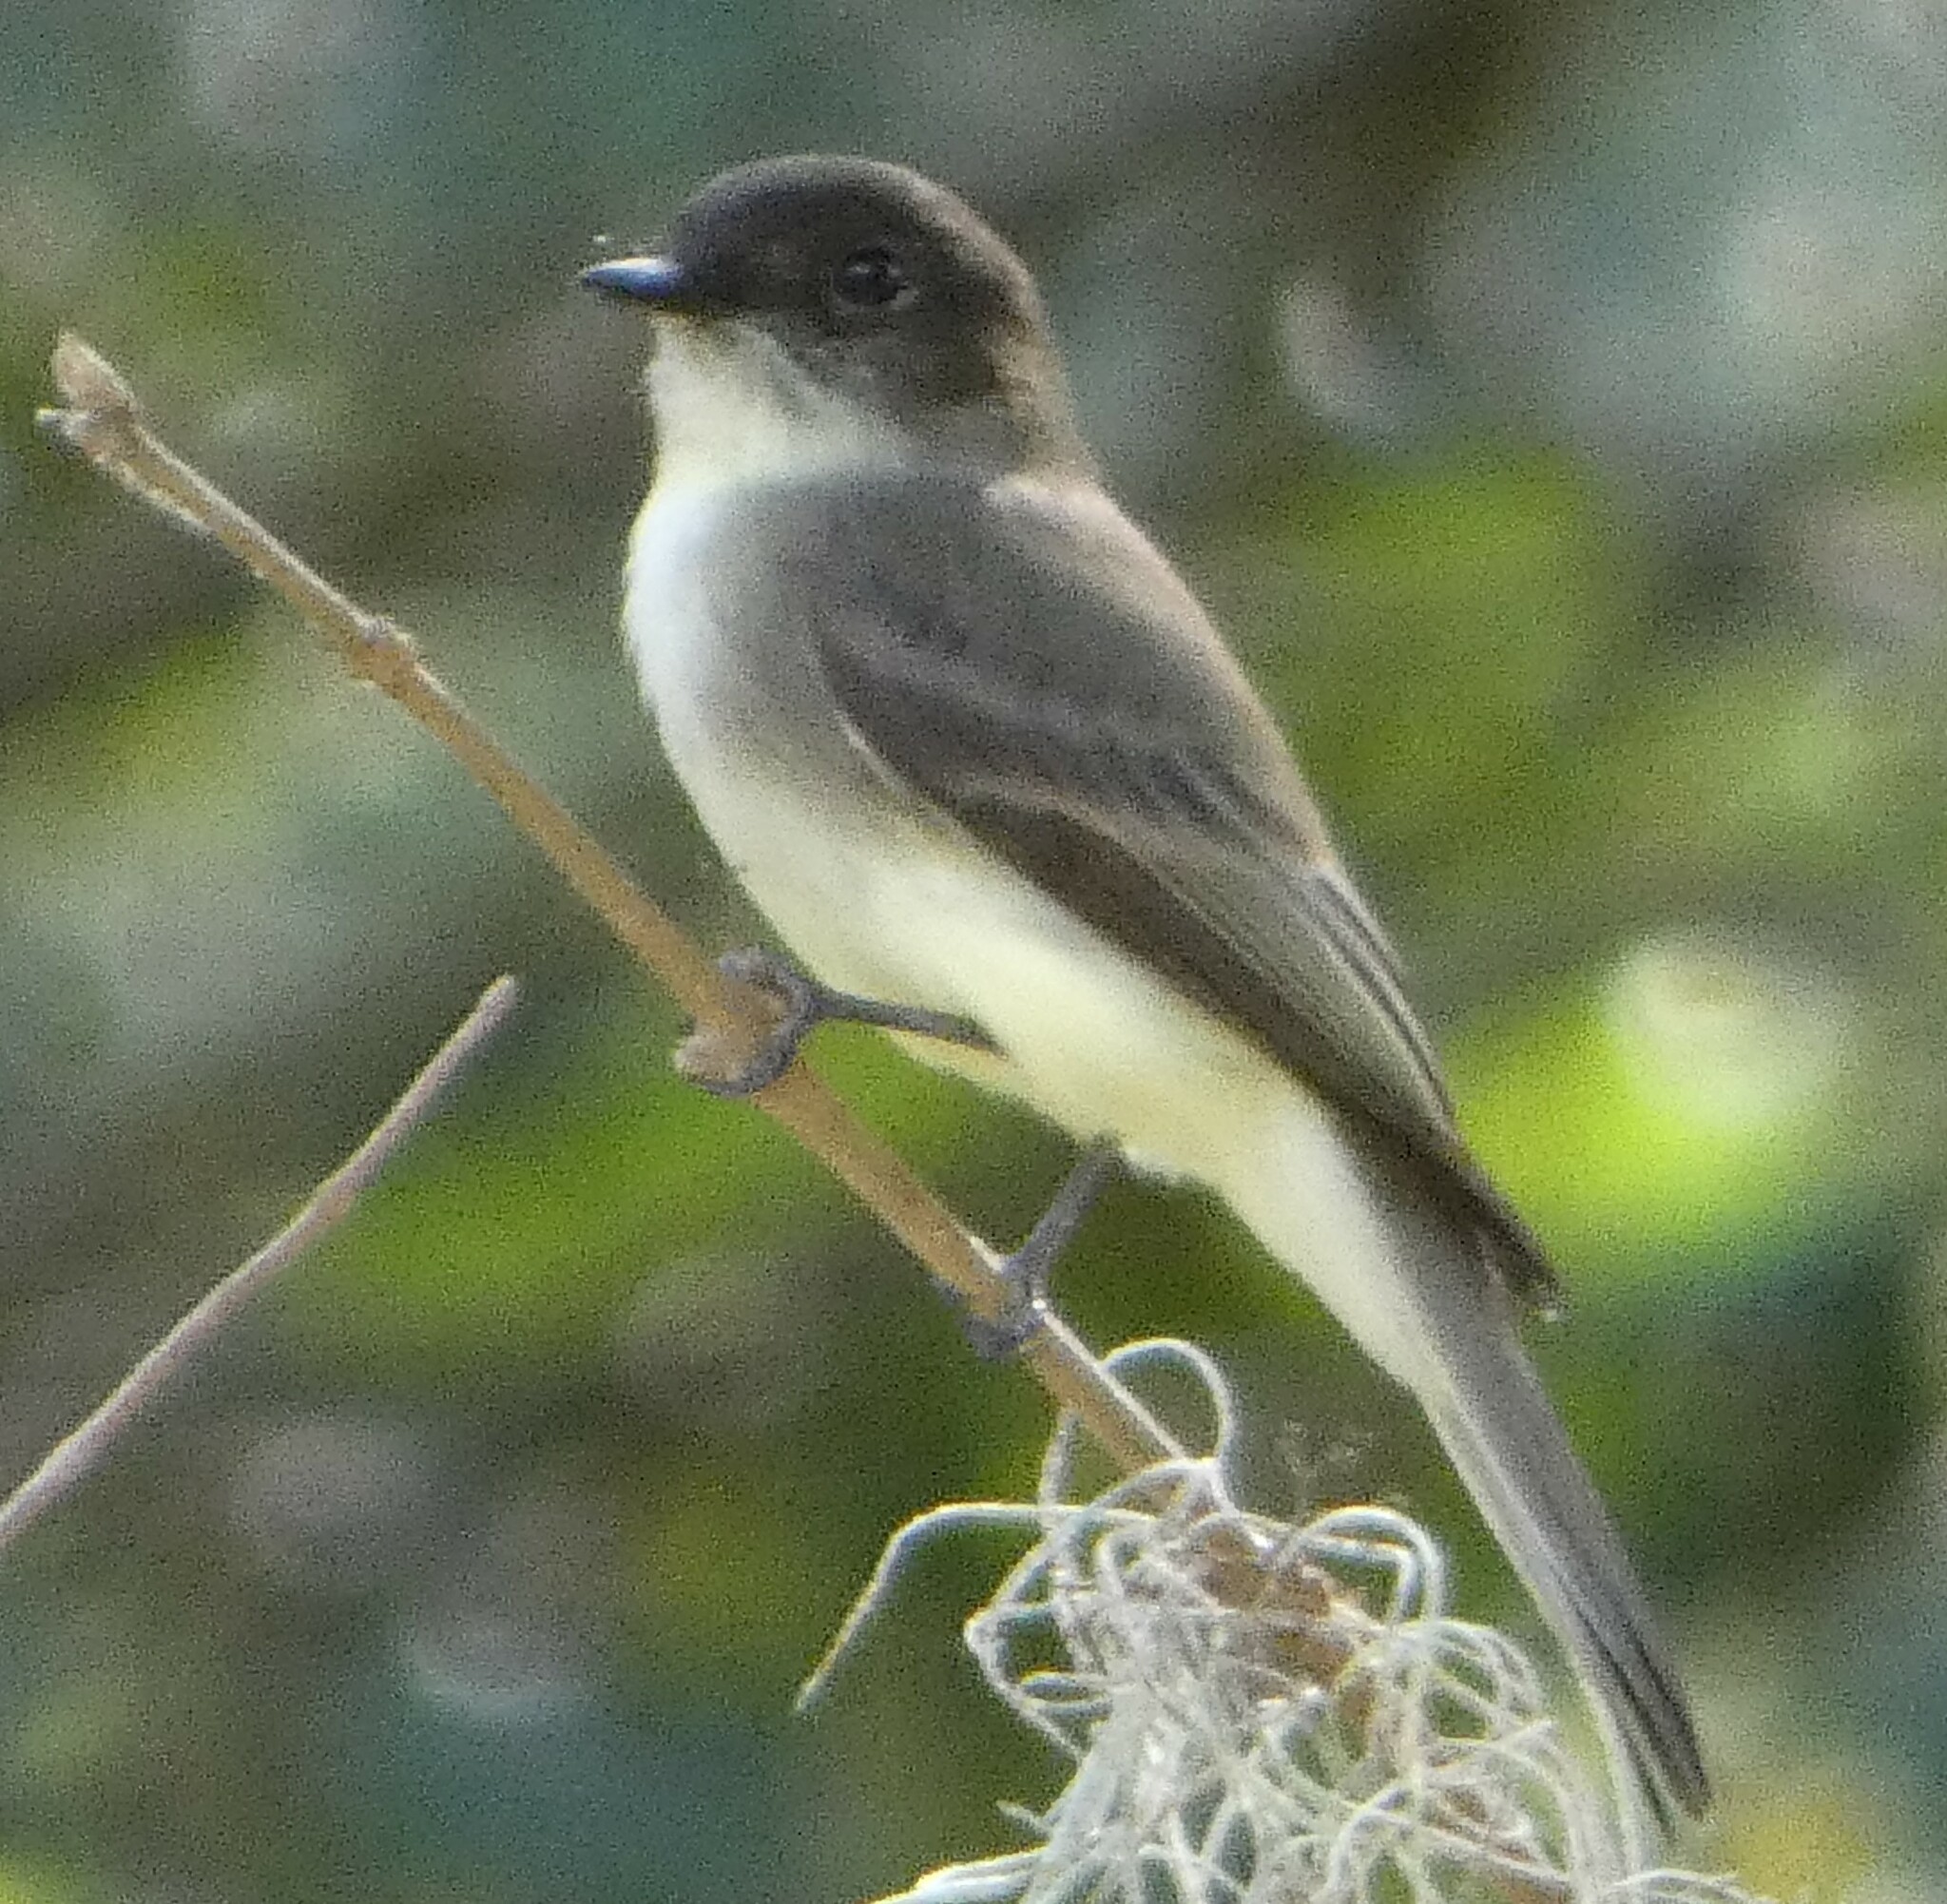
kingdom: Animalia
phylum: Chordata
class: Aves
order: Passeriformes
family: Tyrannidae
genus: Sayornis
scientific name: Sayornis phoebe
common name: Eastern phoebe
